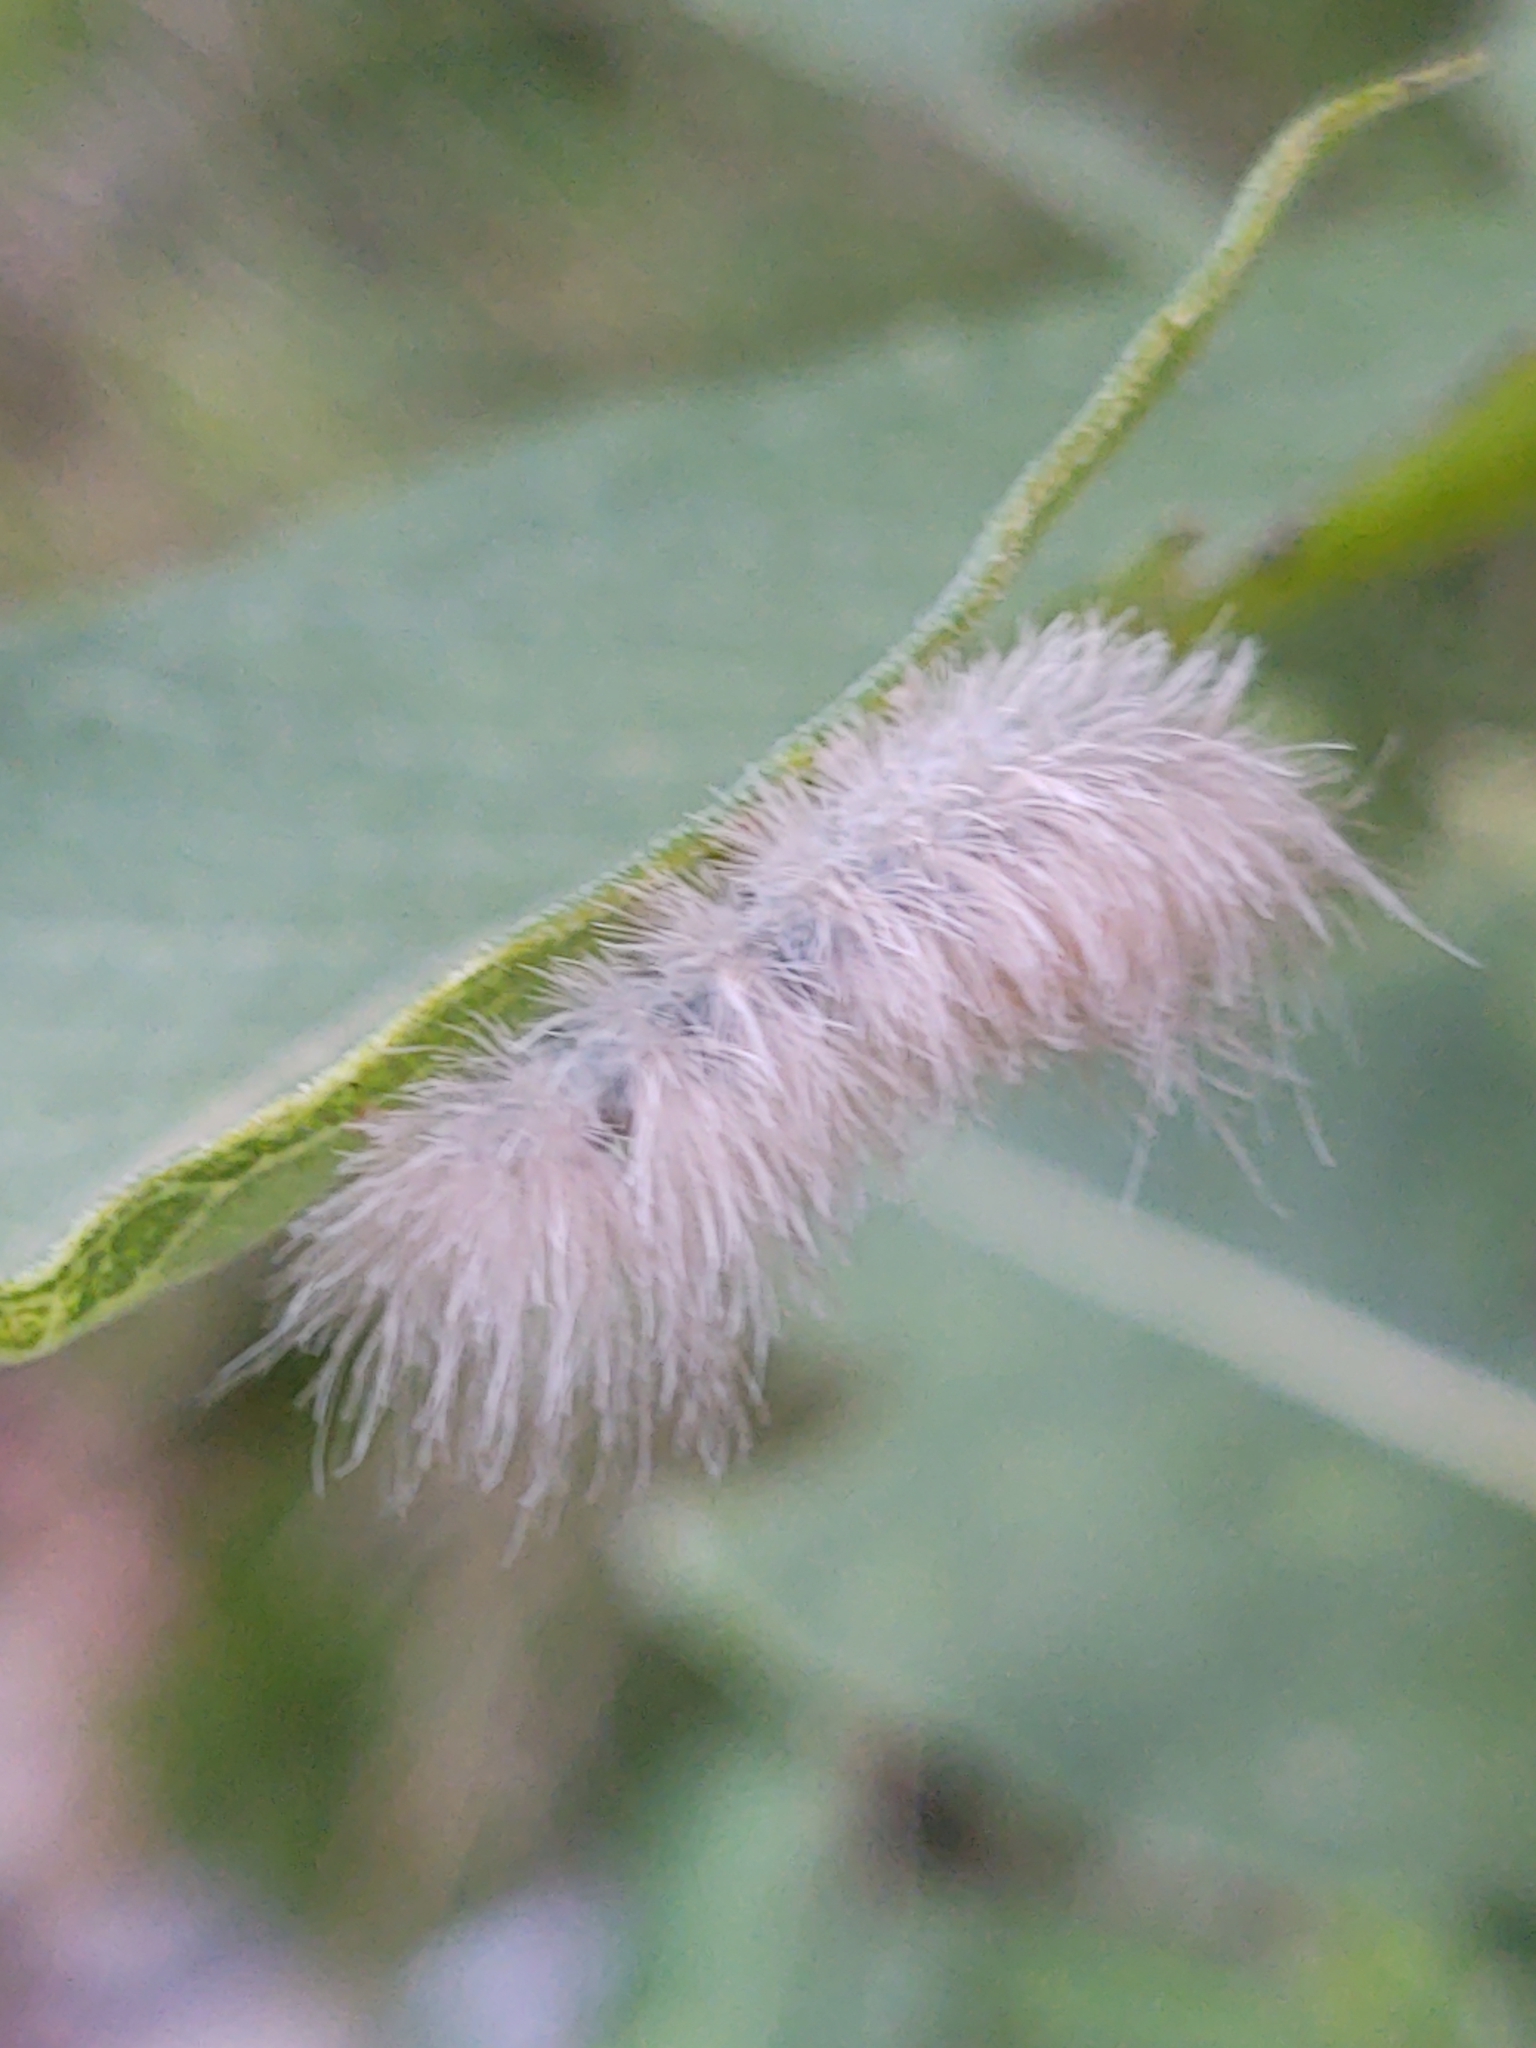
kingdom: Animalia
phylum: Arthropoda
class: Insecta
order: Lepidoptera
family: Erebidae
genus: Cycnia
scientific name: Cycnia tenera
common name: Delicate cycnia moth
